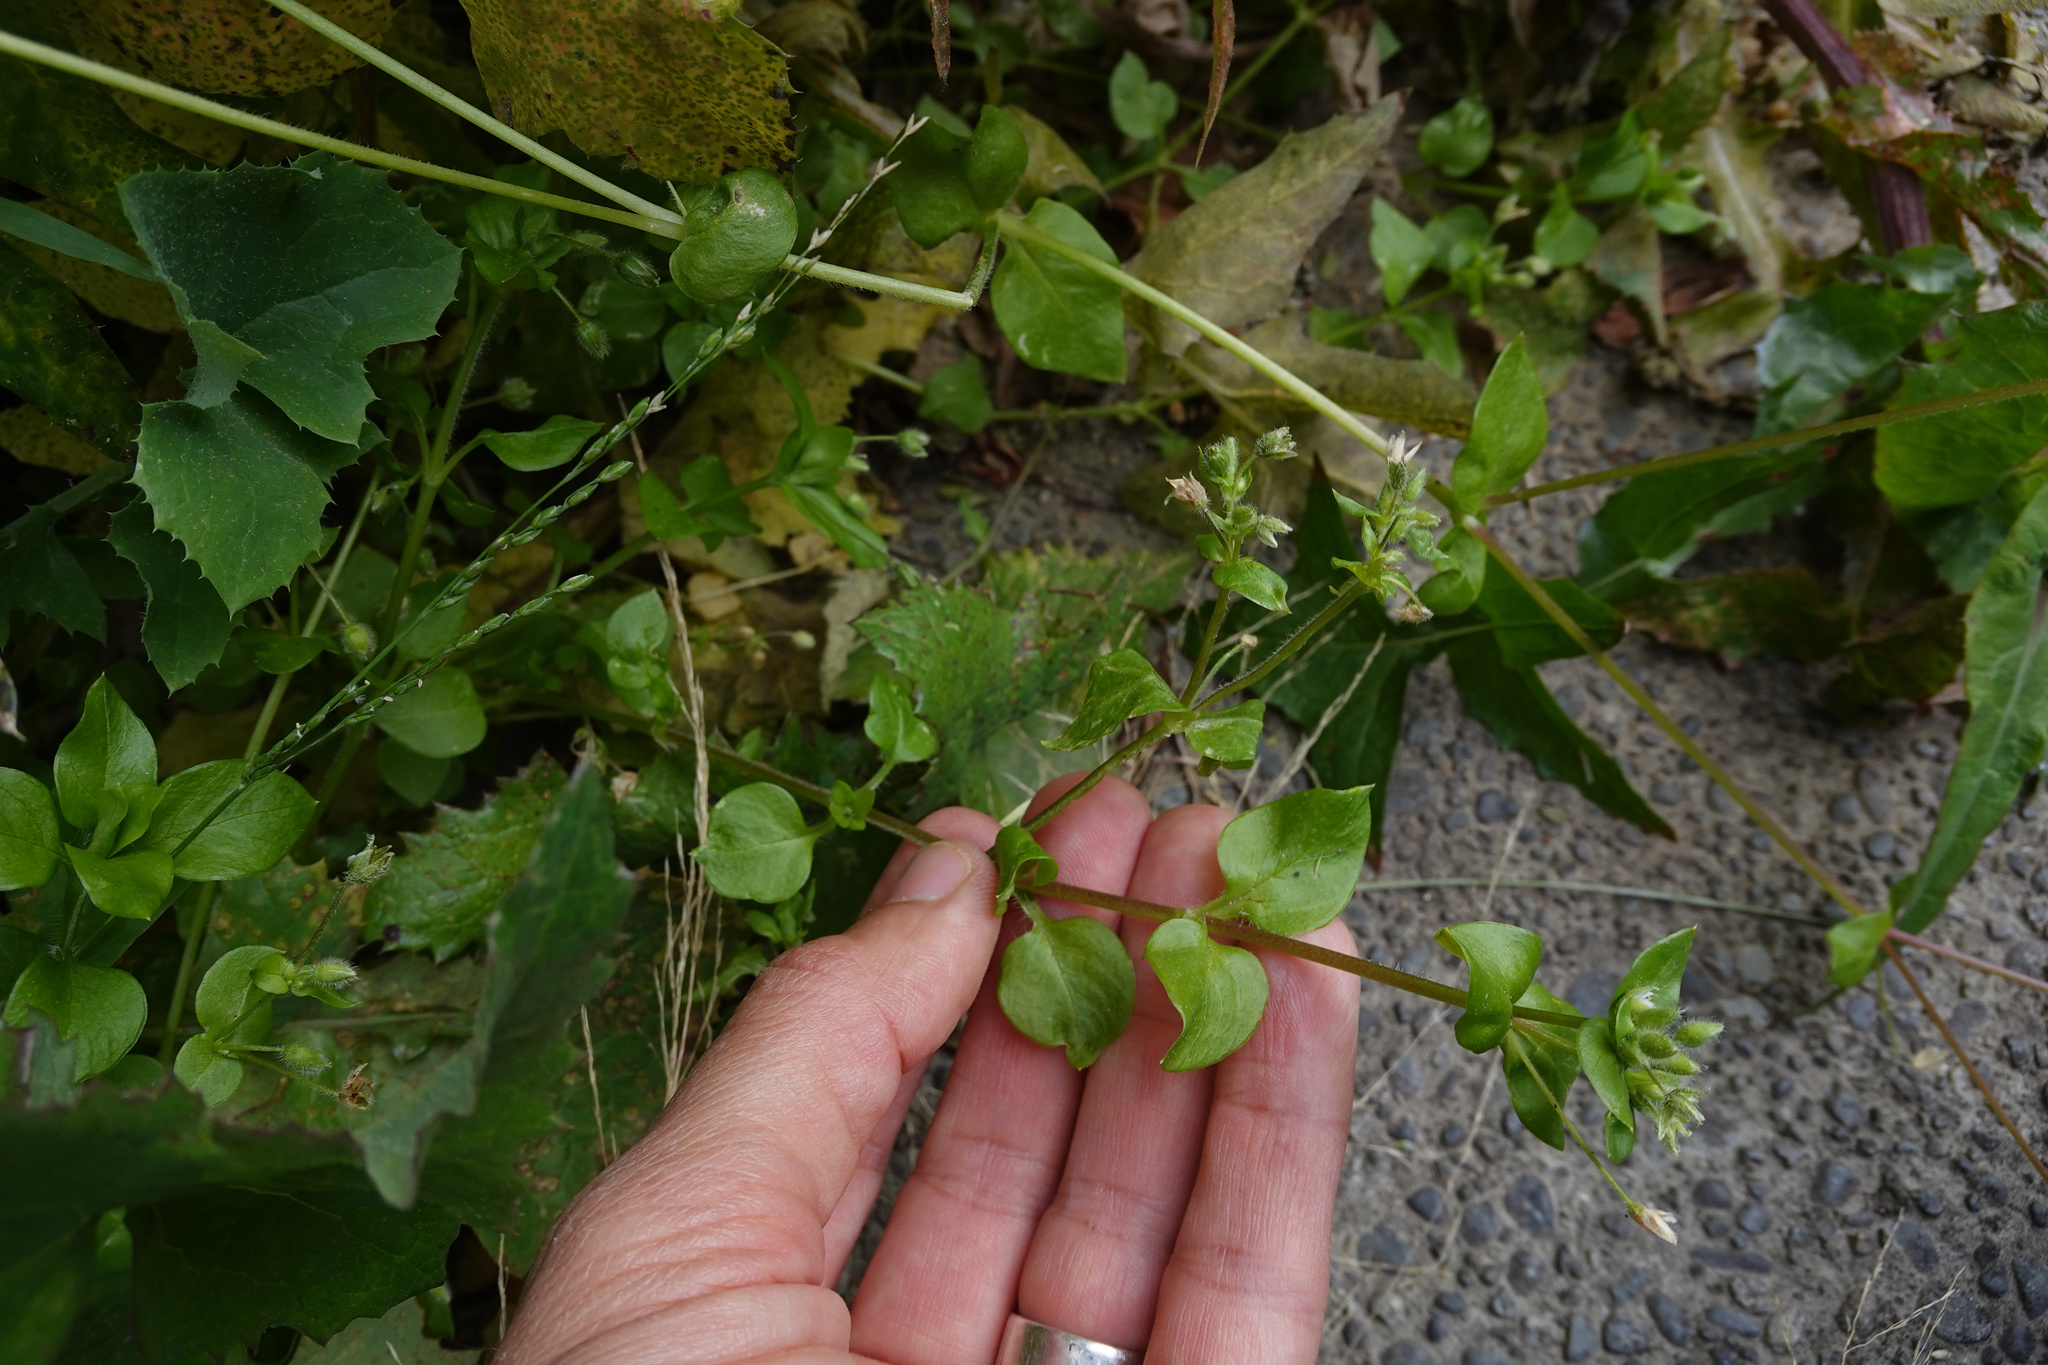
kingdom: Plantae
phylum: Tracheophyta
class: Magnoliopsida
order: Caryophyllales
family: Caryophyllaceae
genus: Stellaria
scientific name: Stellaria media
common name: Common chickweed
